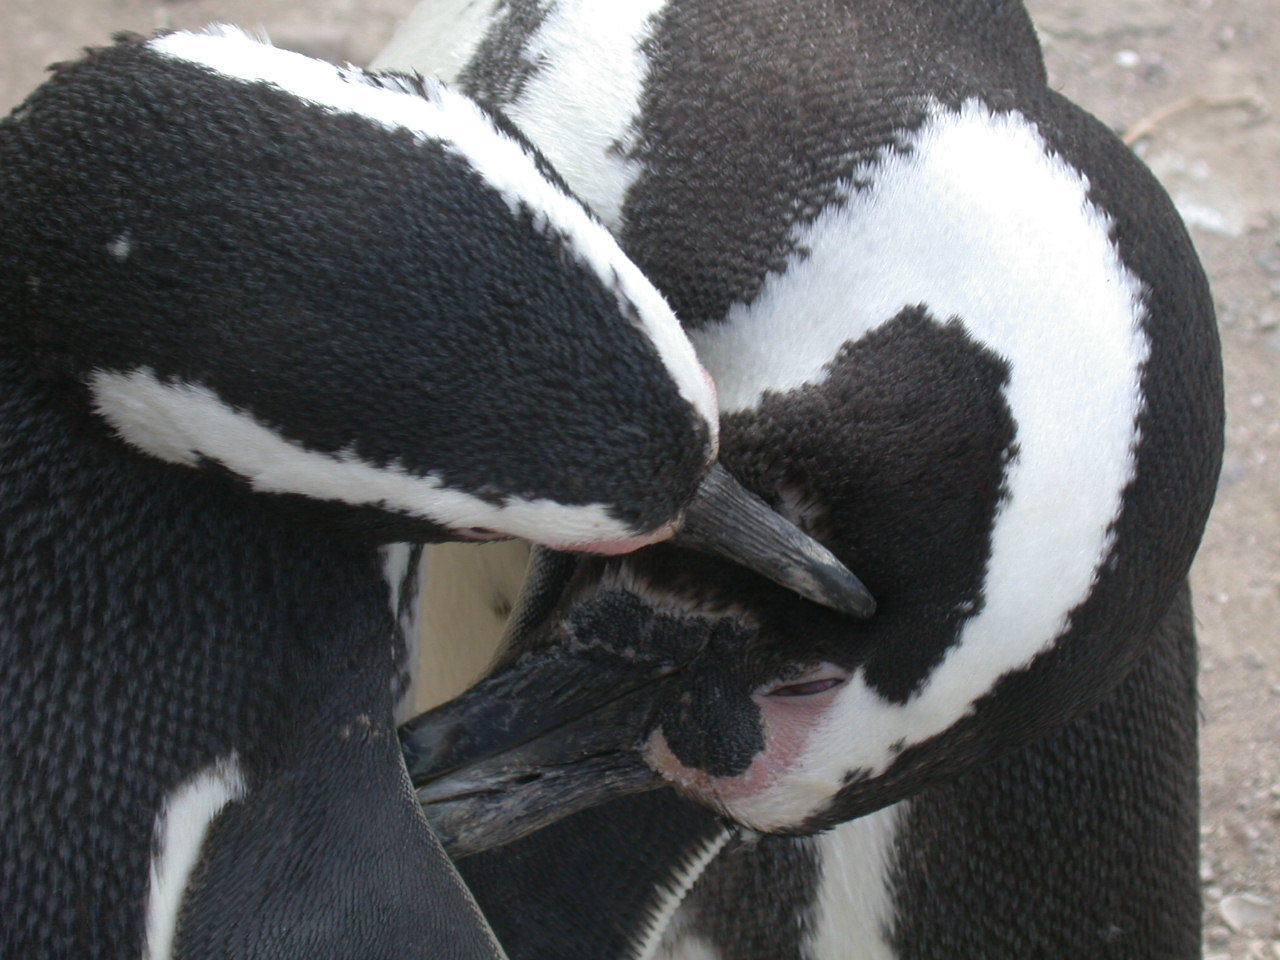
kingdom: Animalia
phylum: Chordata
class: Aves
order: Sphenisciformes
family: Spheniscidae
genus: Spheniscus
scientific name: Spheniscus magellanicus
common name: Magellanic penguin
